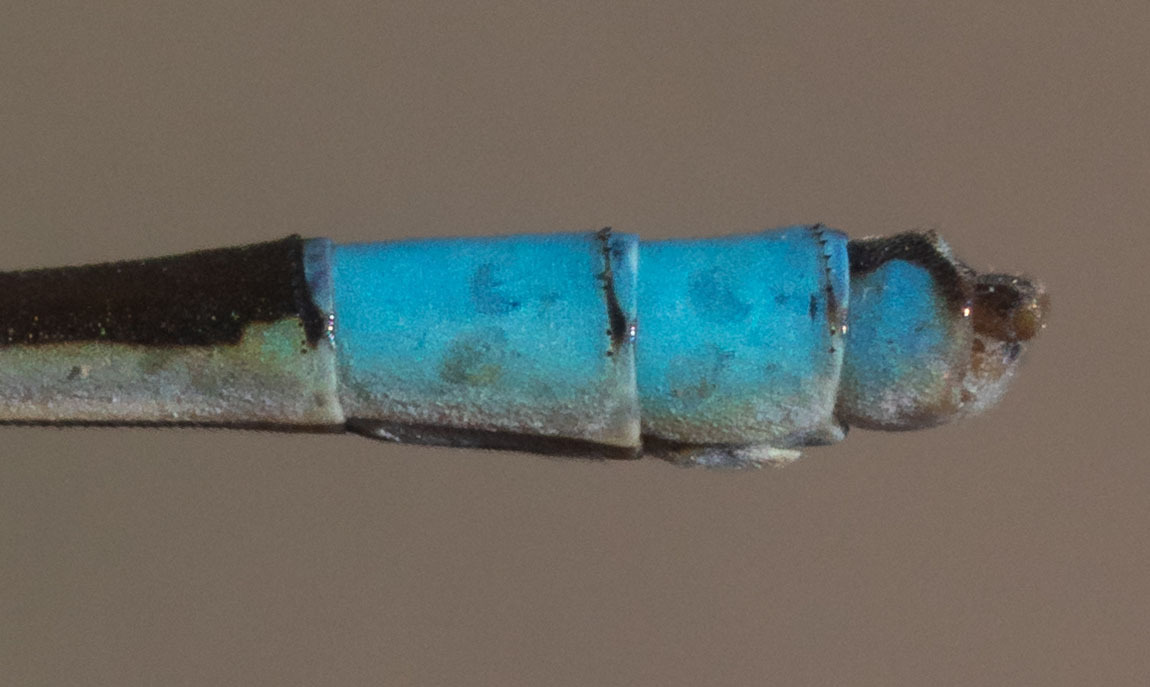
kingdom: Animalia
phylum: Arthropoda
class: Insecta
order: Odonata
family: Coenagrionidae
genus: Enallagma
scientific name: Enallagma carunculatum
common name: Tule bluet
